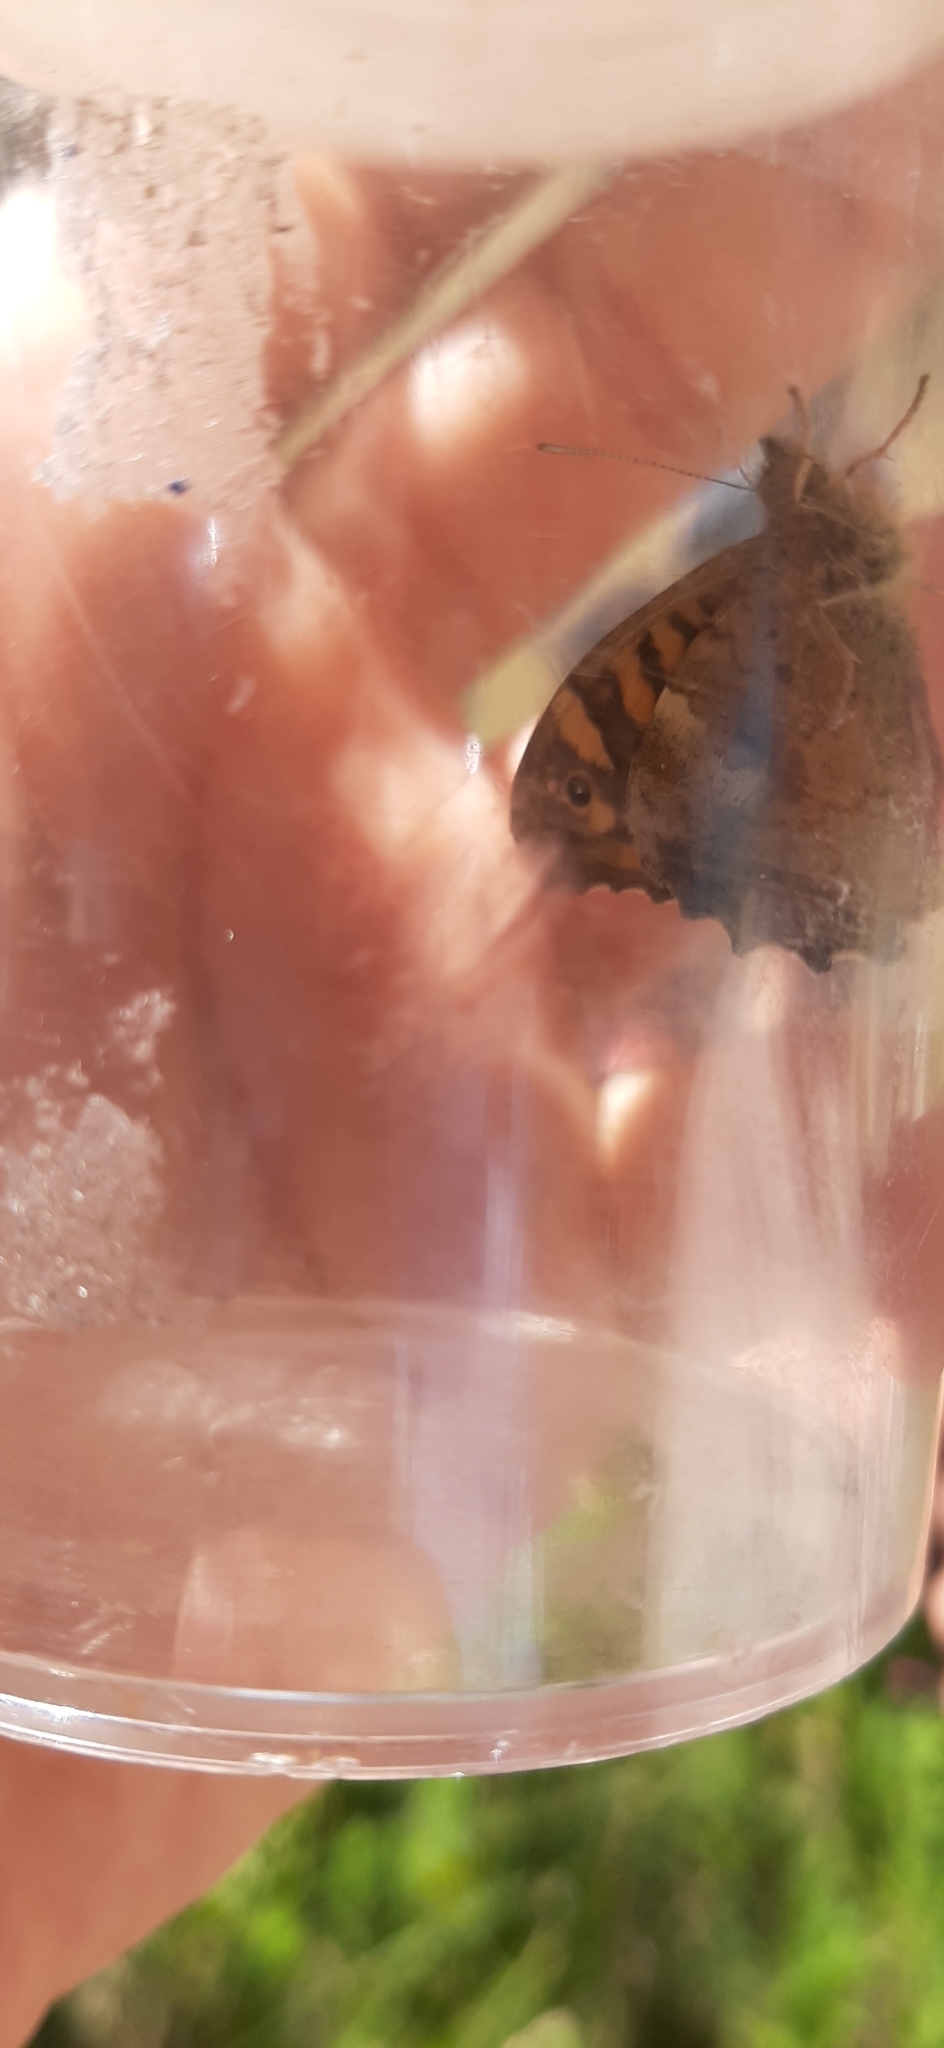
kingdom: Animalia
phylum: Arthropoda
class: Insecta
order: Lepidoptera
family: Nymphalidae
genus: Pararge
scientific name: Pararge aegeria
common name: Speckled wood
